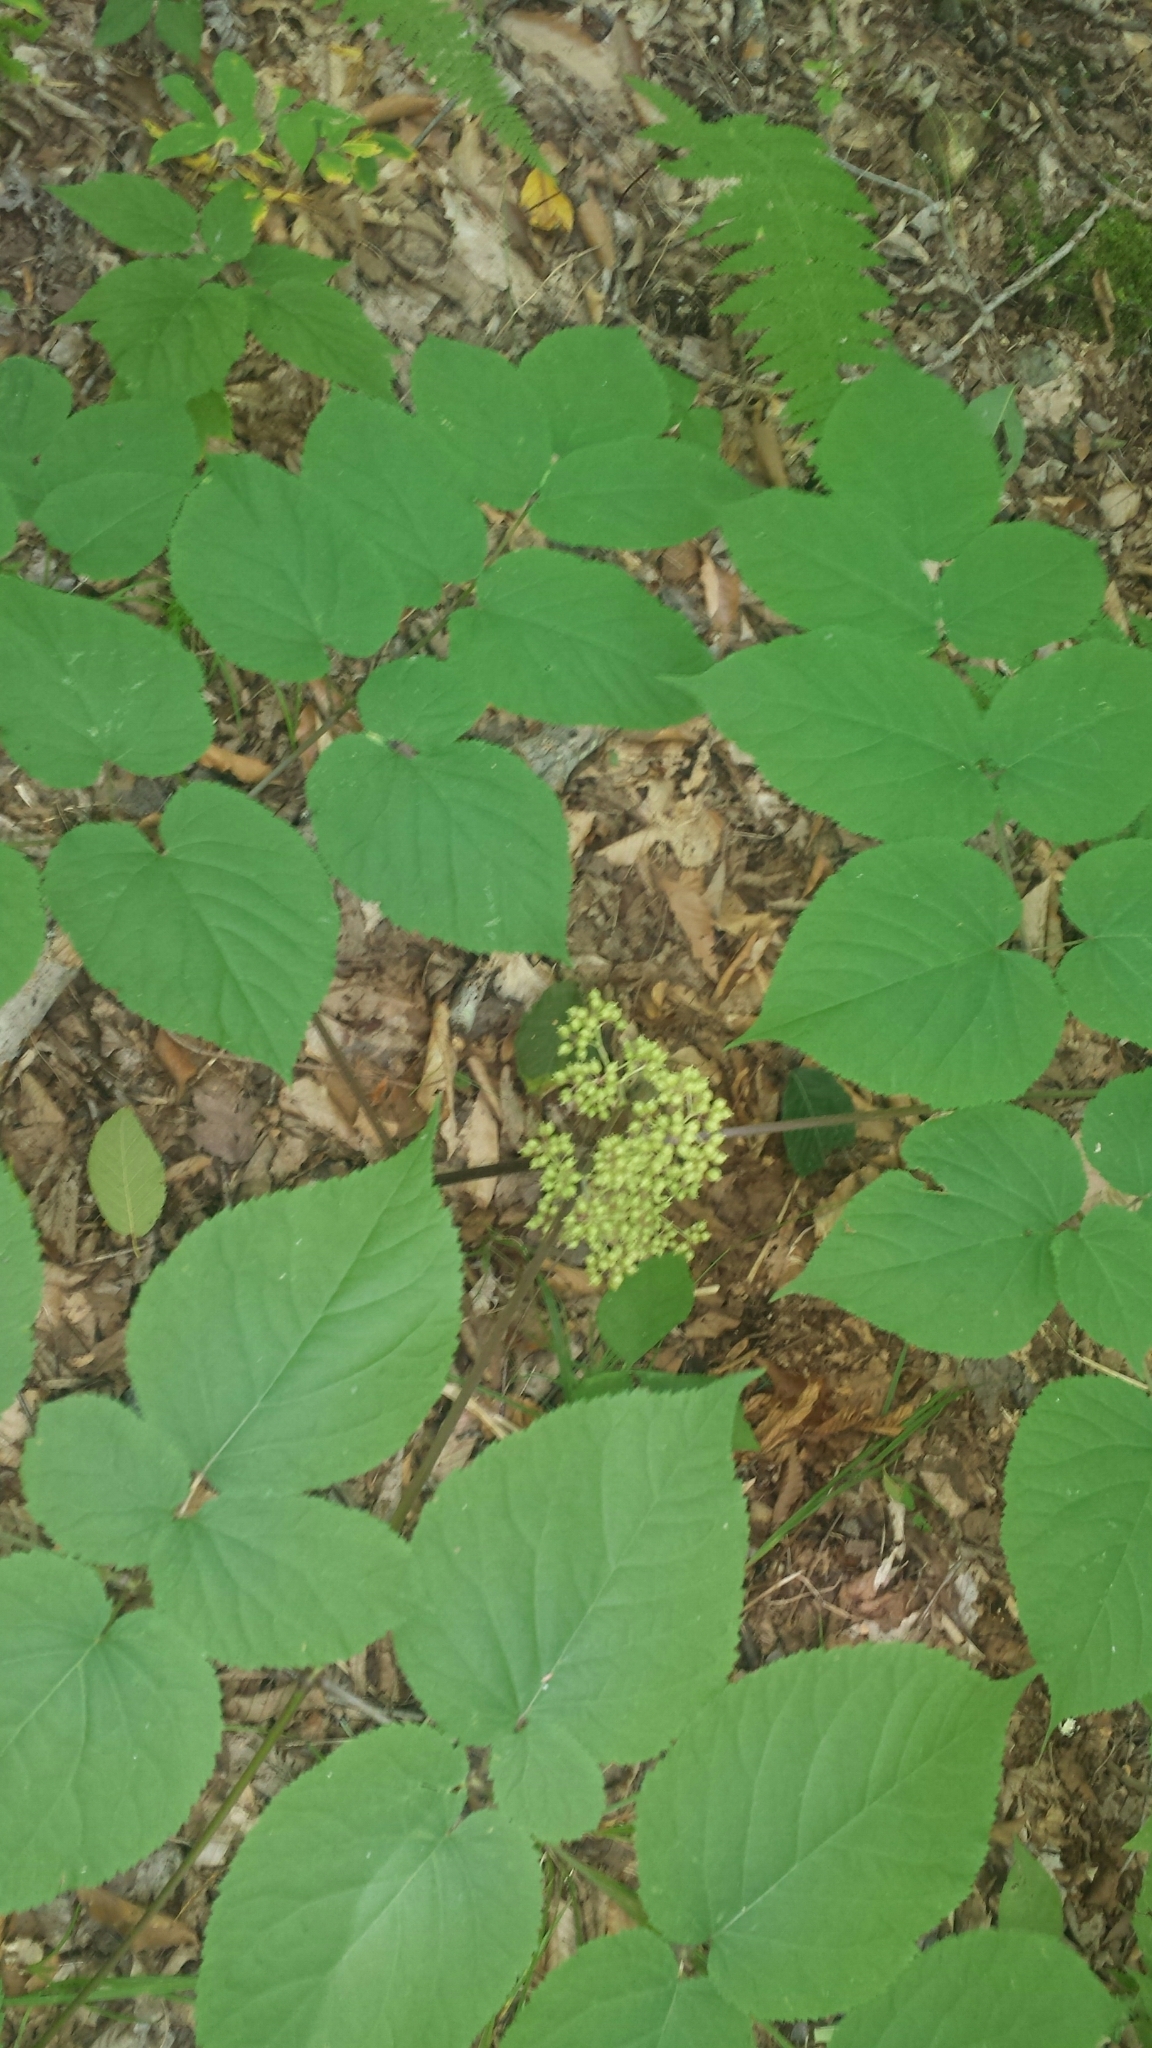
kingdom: Plantae
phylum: Tracheophyta
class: Magnoliopsida
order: Apiales
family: Araliaceae
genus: Aralia
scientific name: Aralia racemosa
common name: American-spikenard
